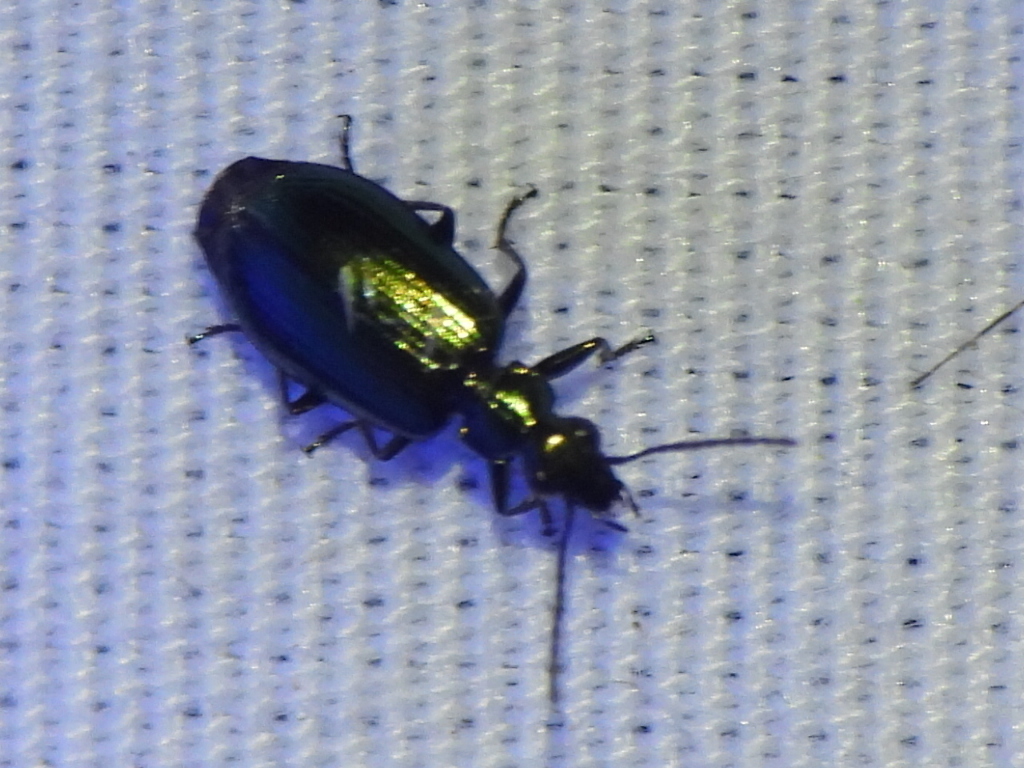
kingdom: Animalia
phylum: Arthropoda
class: Insecta
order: Coleoptera
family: Carabidae
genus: Lebia
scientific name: Lebia viridis
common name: Flower lebia beetle
